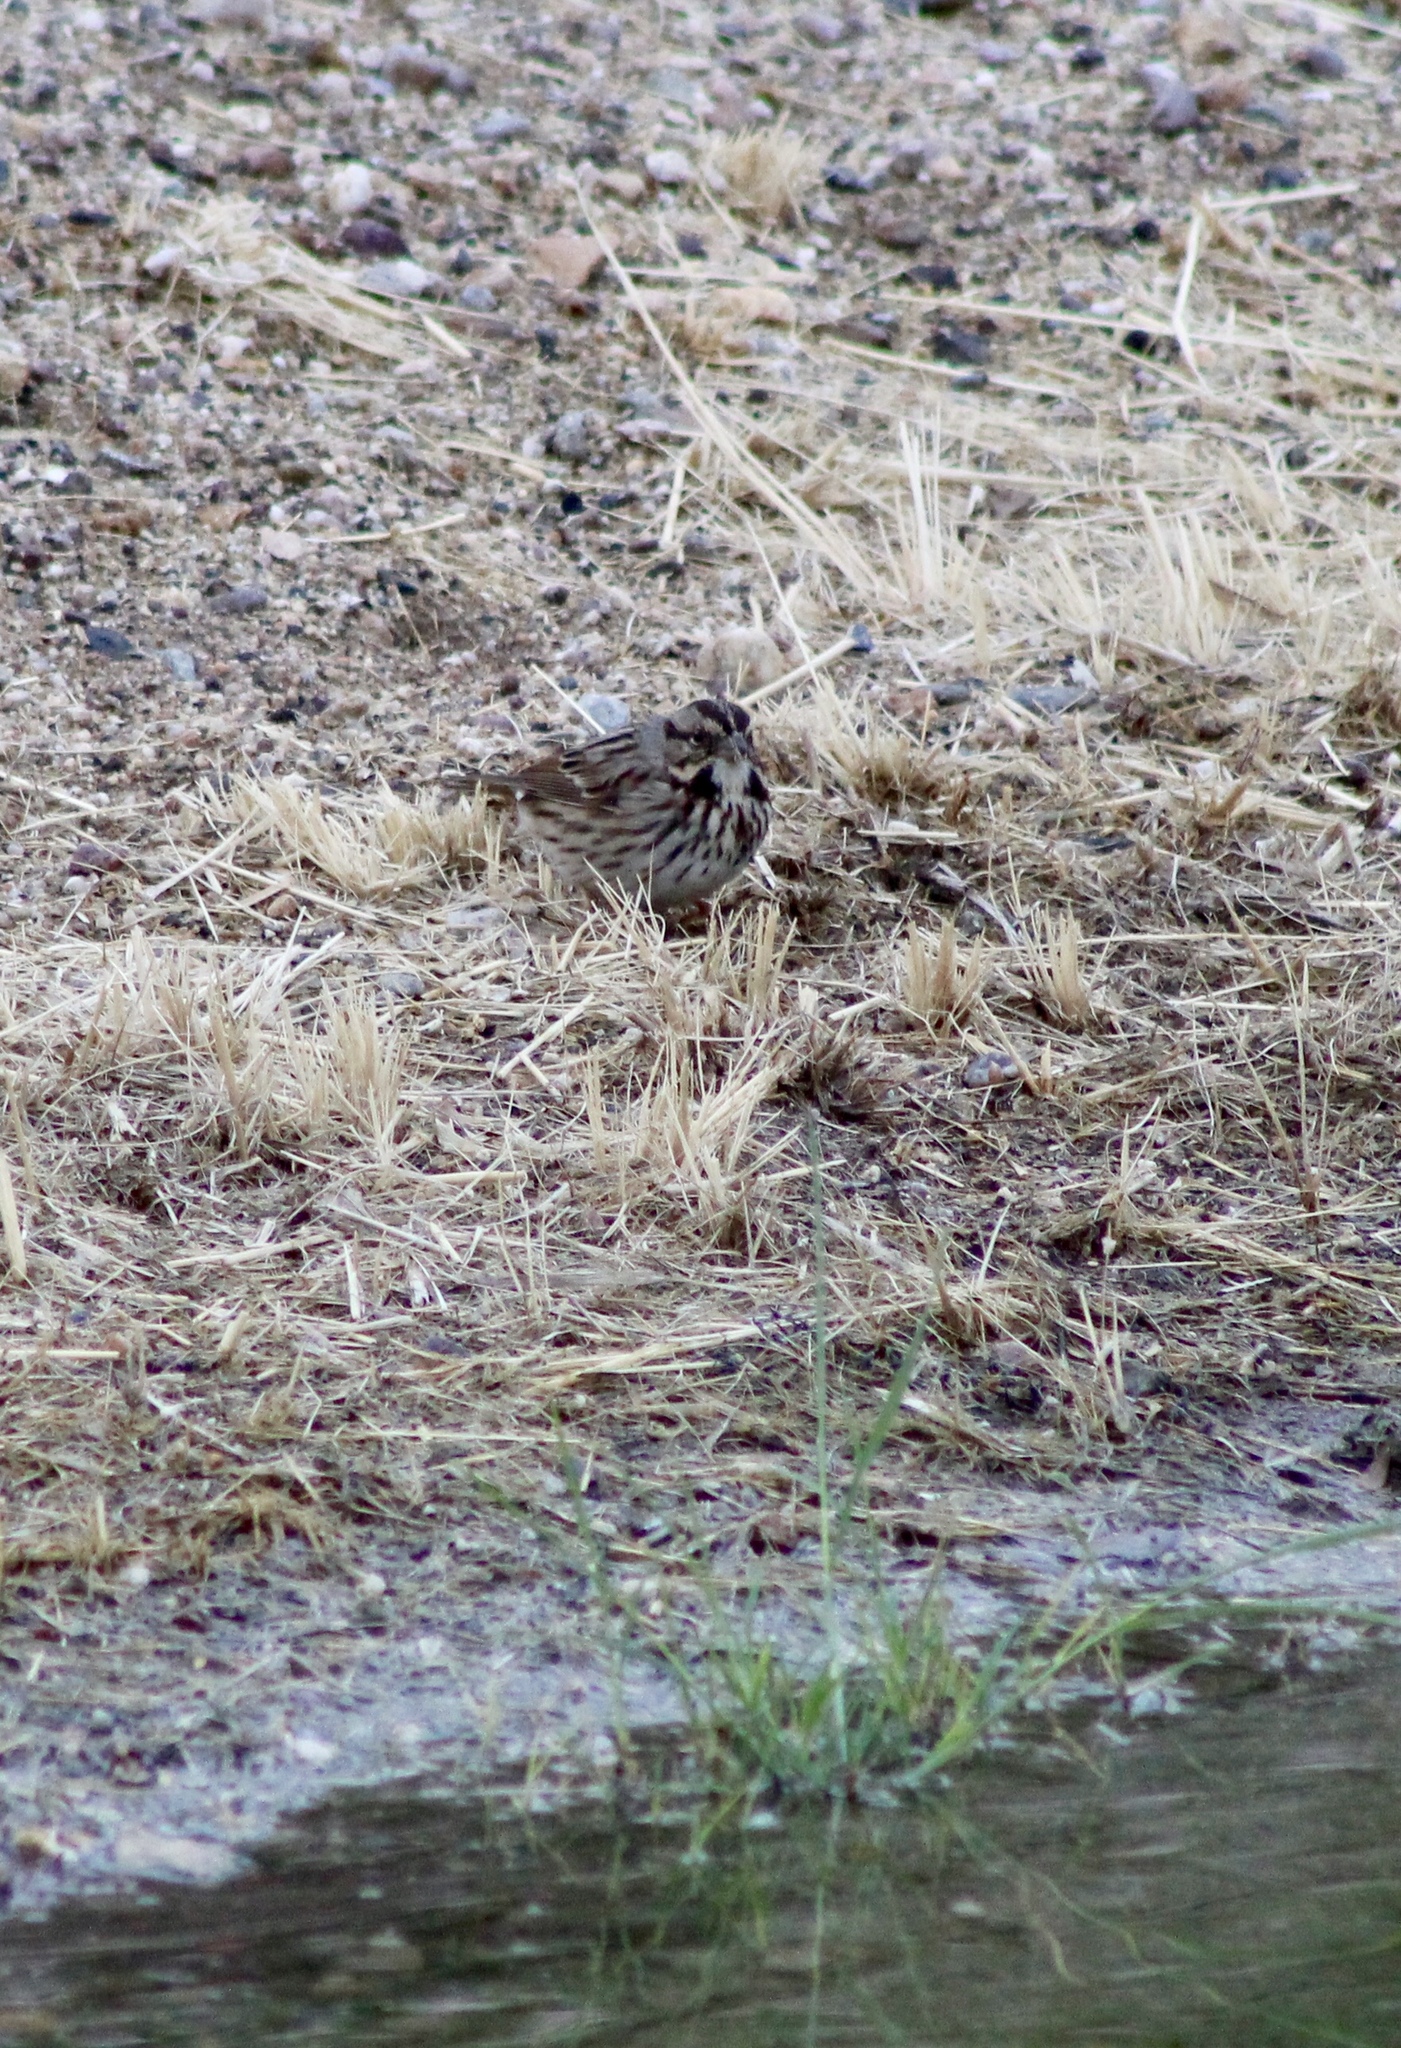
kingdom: Animalia
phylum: Chordata
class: Aves
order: Passeriformes
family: Passerellidae
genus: Melospiza
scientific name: Melospiza melodia
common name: Song sparrow
